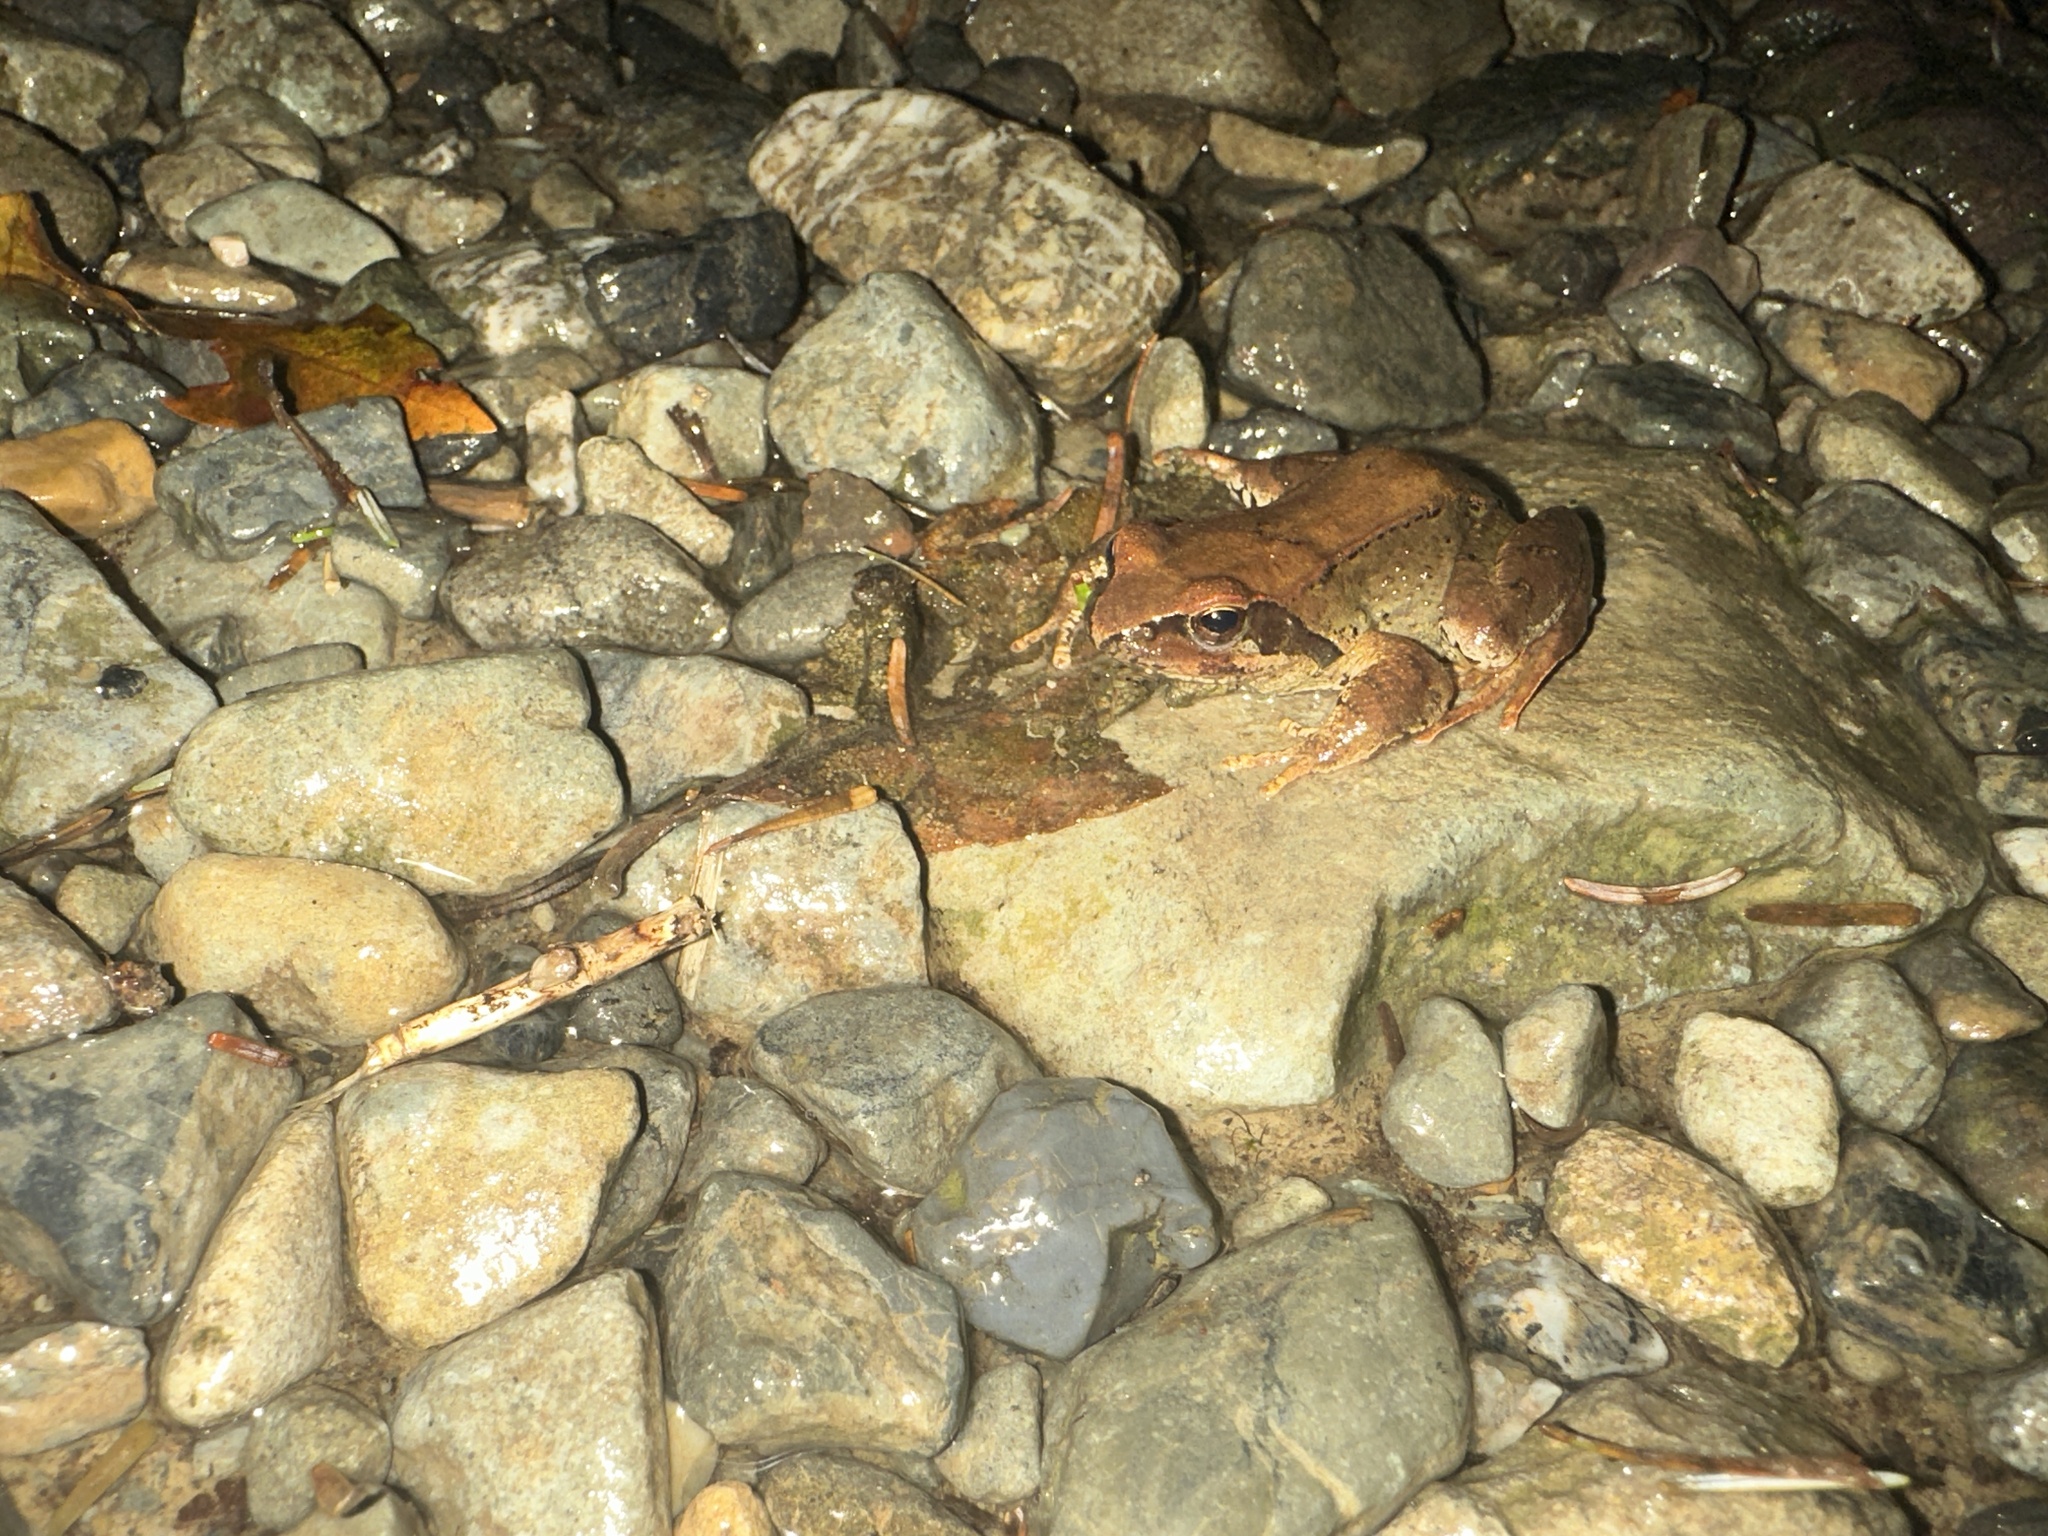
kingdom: Animalia
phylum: Chordata
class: Amphibia
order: Anura
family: Ranidae
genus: Rana
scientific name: Rana tagoi
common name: Tago's brown frog
